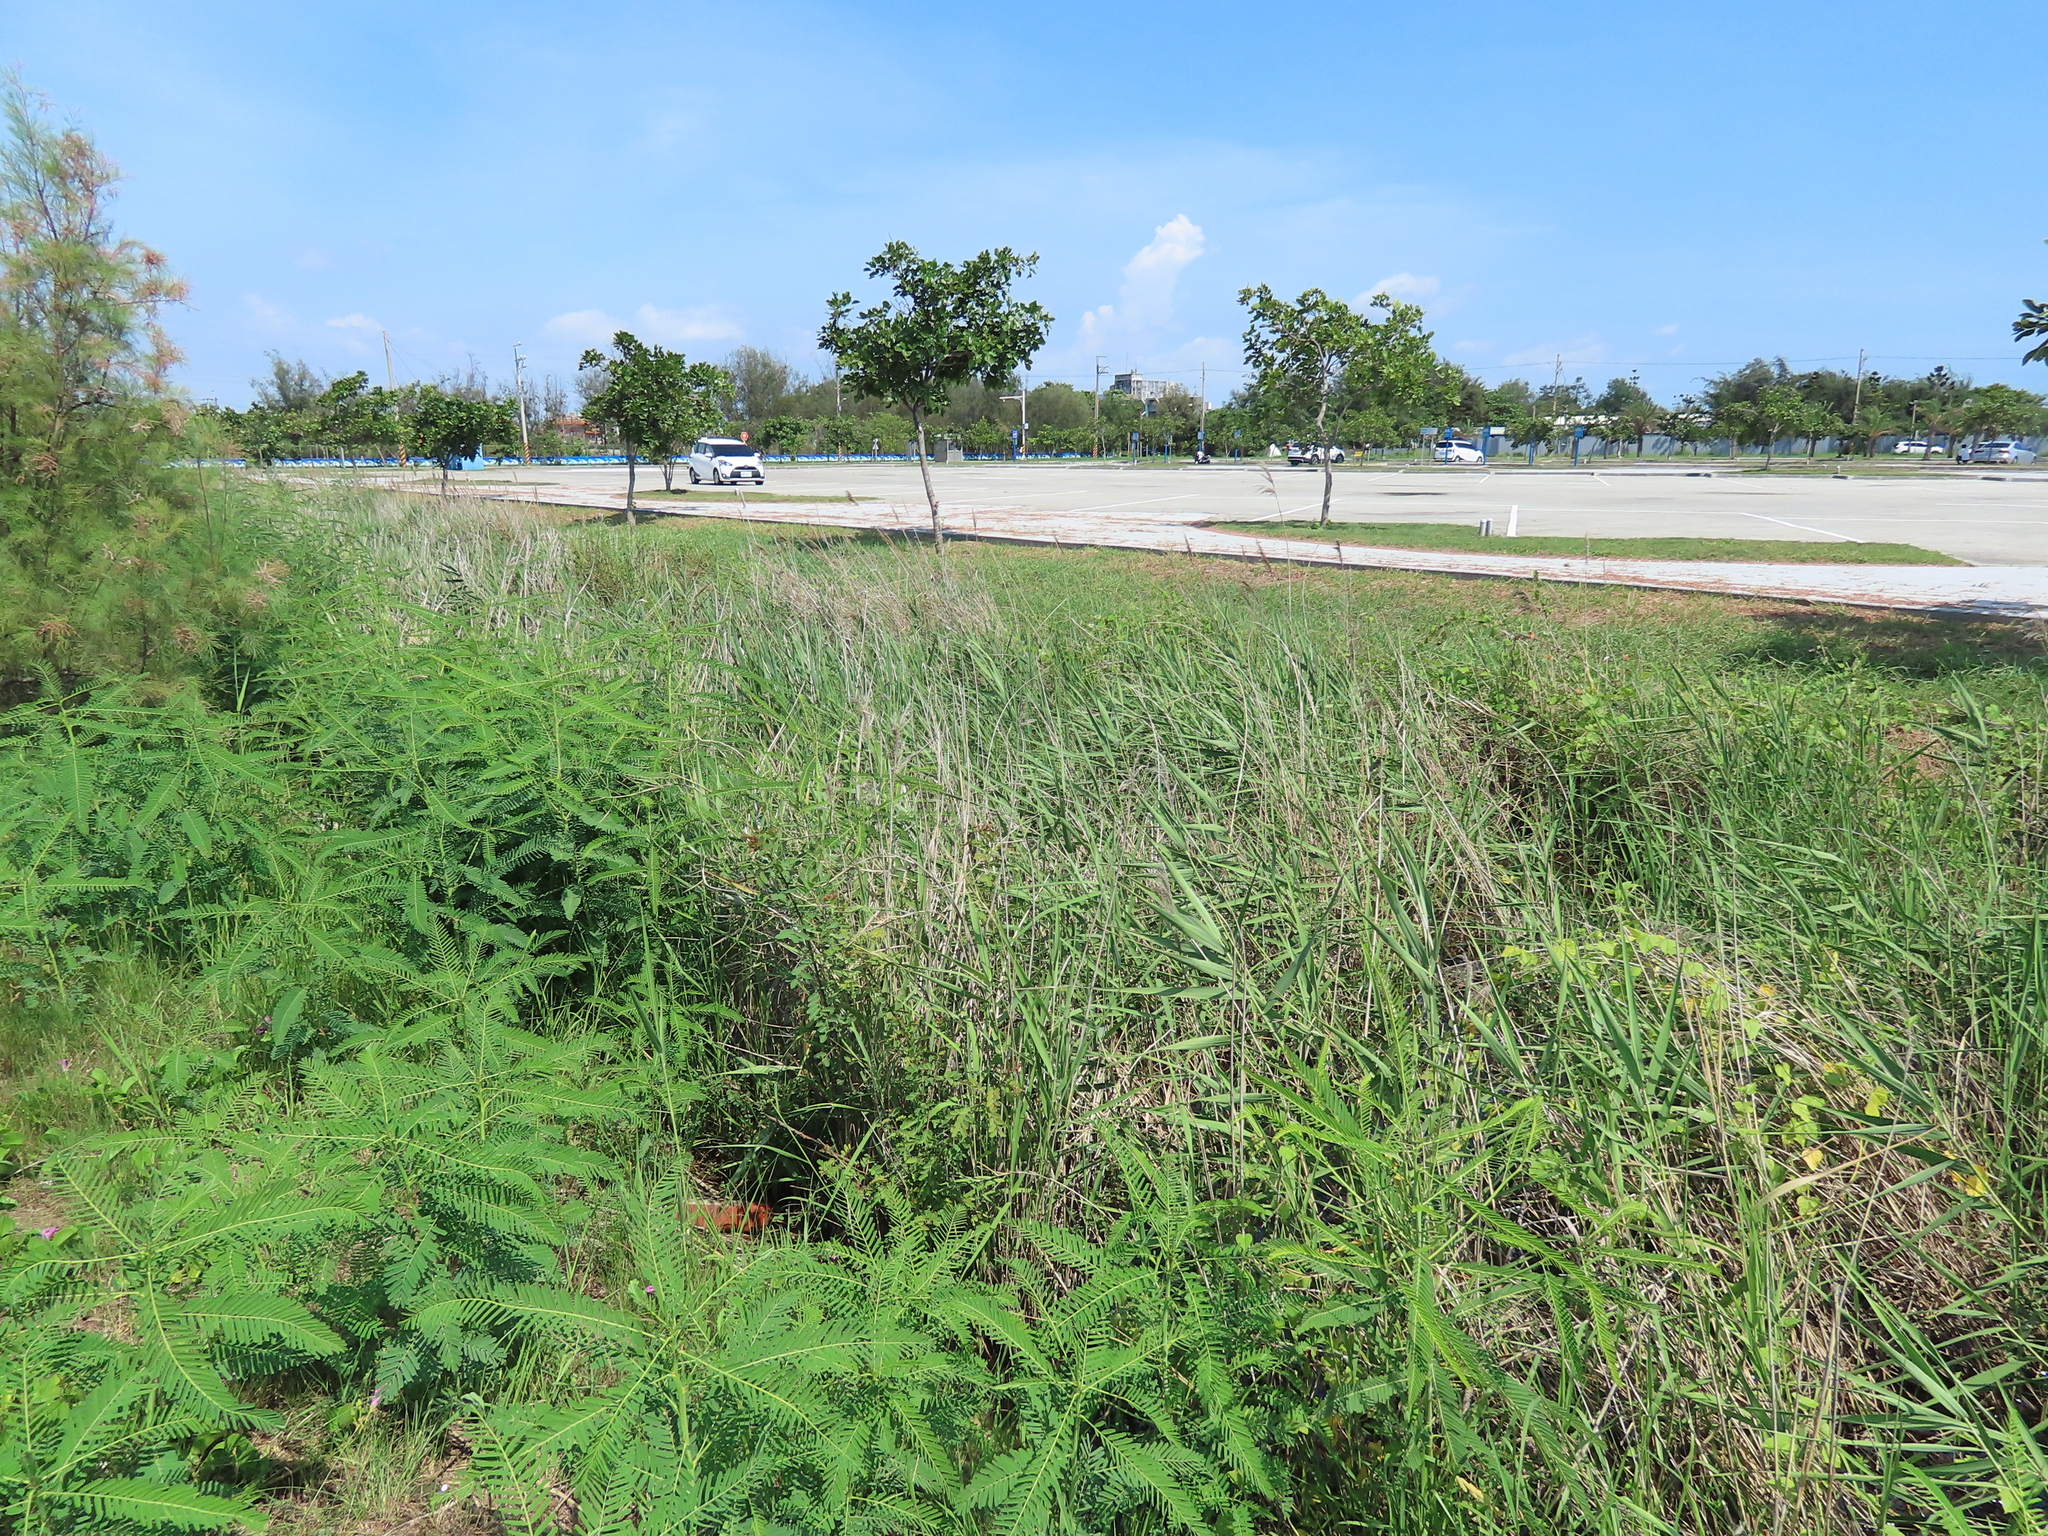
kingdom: Plantae
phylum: Tracheophyta
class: Magnoliopsida
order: Malpighiales
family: Phyllanthaceae
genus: Phyllanthus
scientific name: Phyllanthus reticulatus
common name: Potato bush
